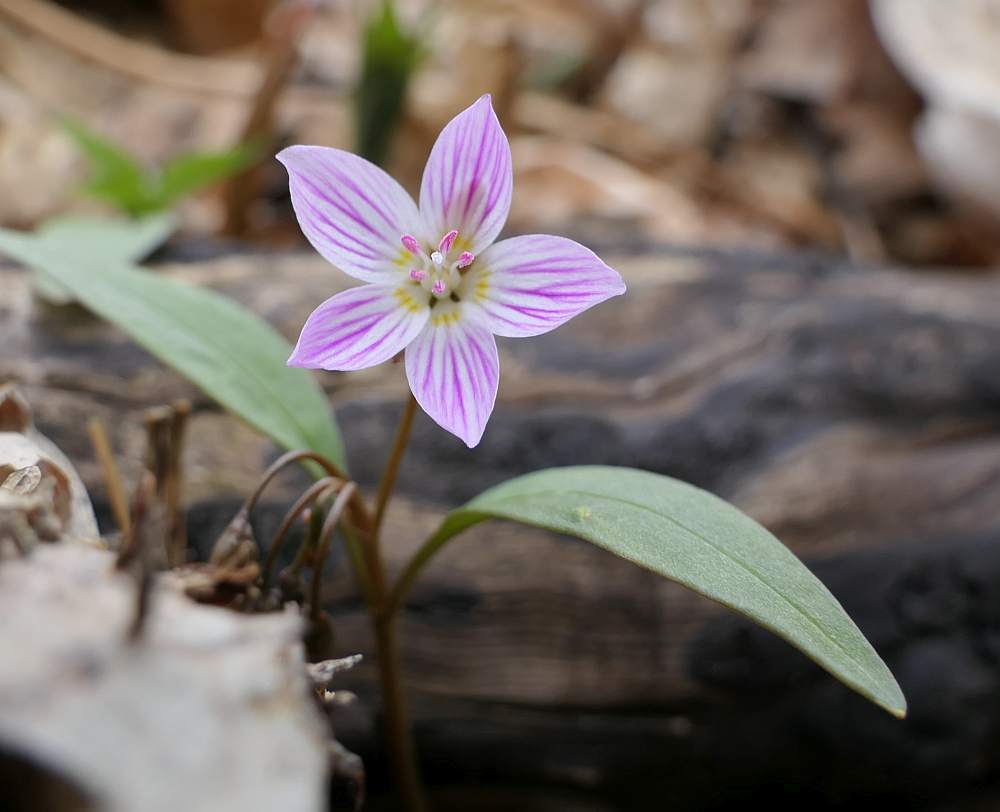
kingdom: Plantae
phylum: Tracheophyta
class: Magnoliopsida
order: Caryophyllales
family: Montiaceae
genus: Claytonia
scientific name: Claytonia caroliniana
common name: Carolina spring beauty
